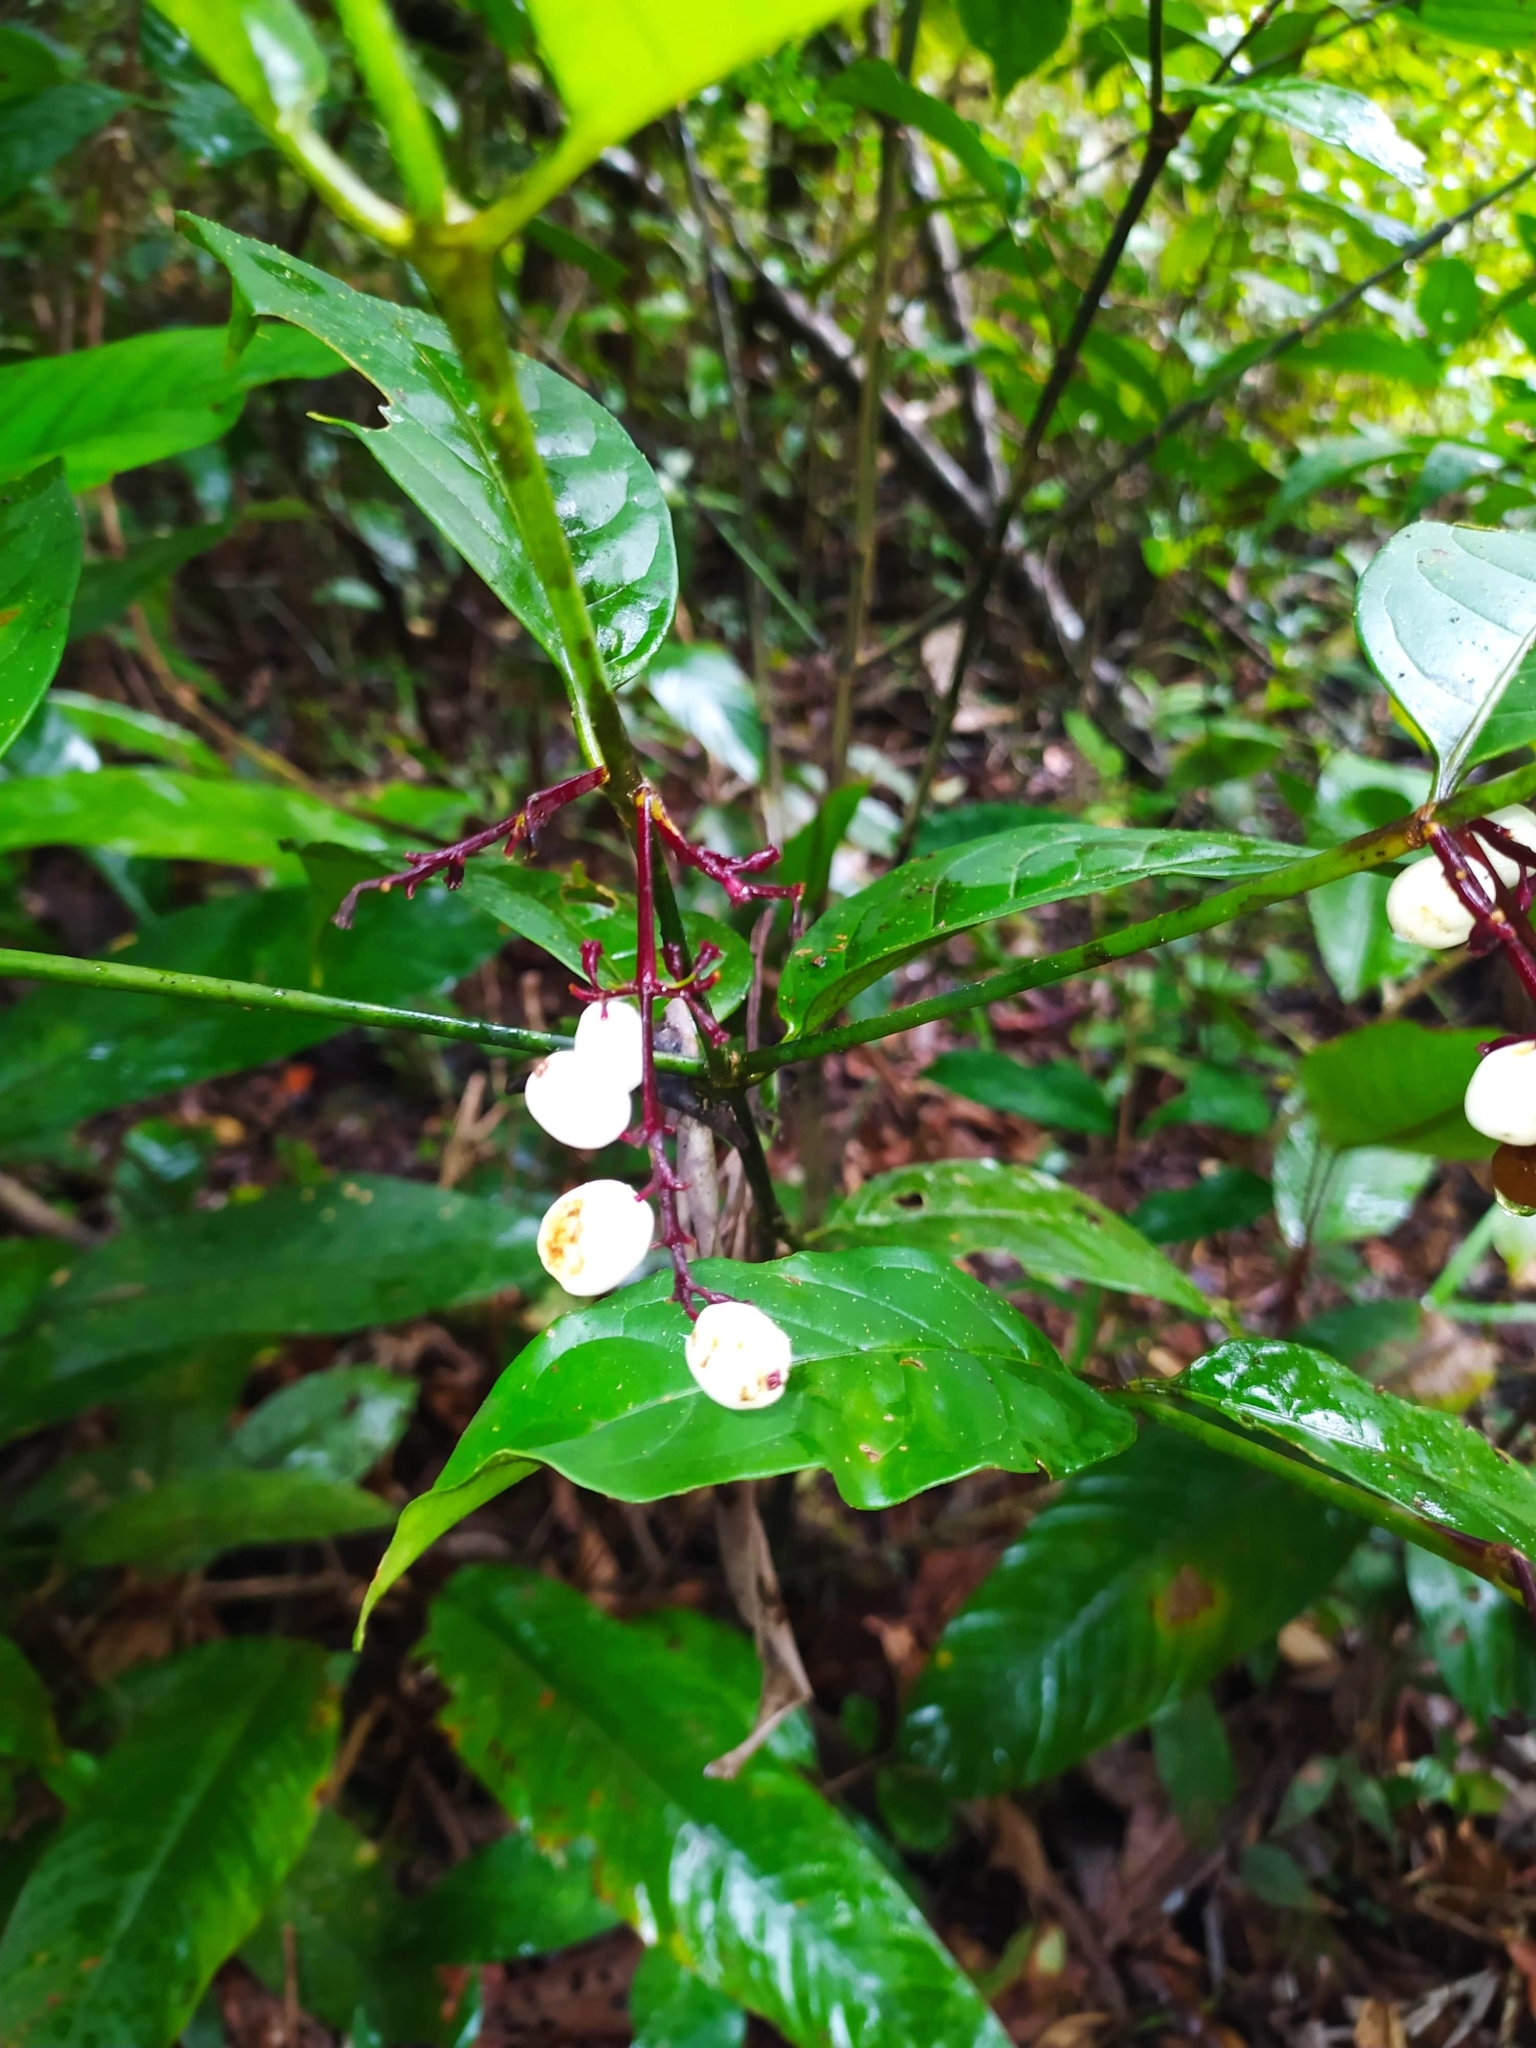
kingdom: Plantae
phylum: Tracheophyta
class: Magnoliopsida
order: Gentianales
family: Rubiaceae
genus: Chiococca
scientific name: Chiococca nitida
